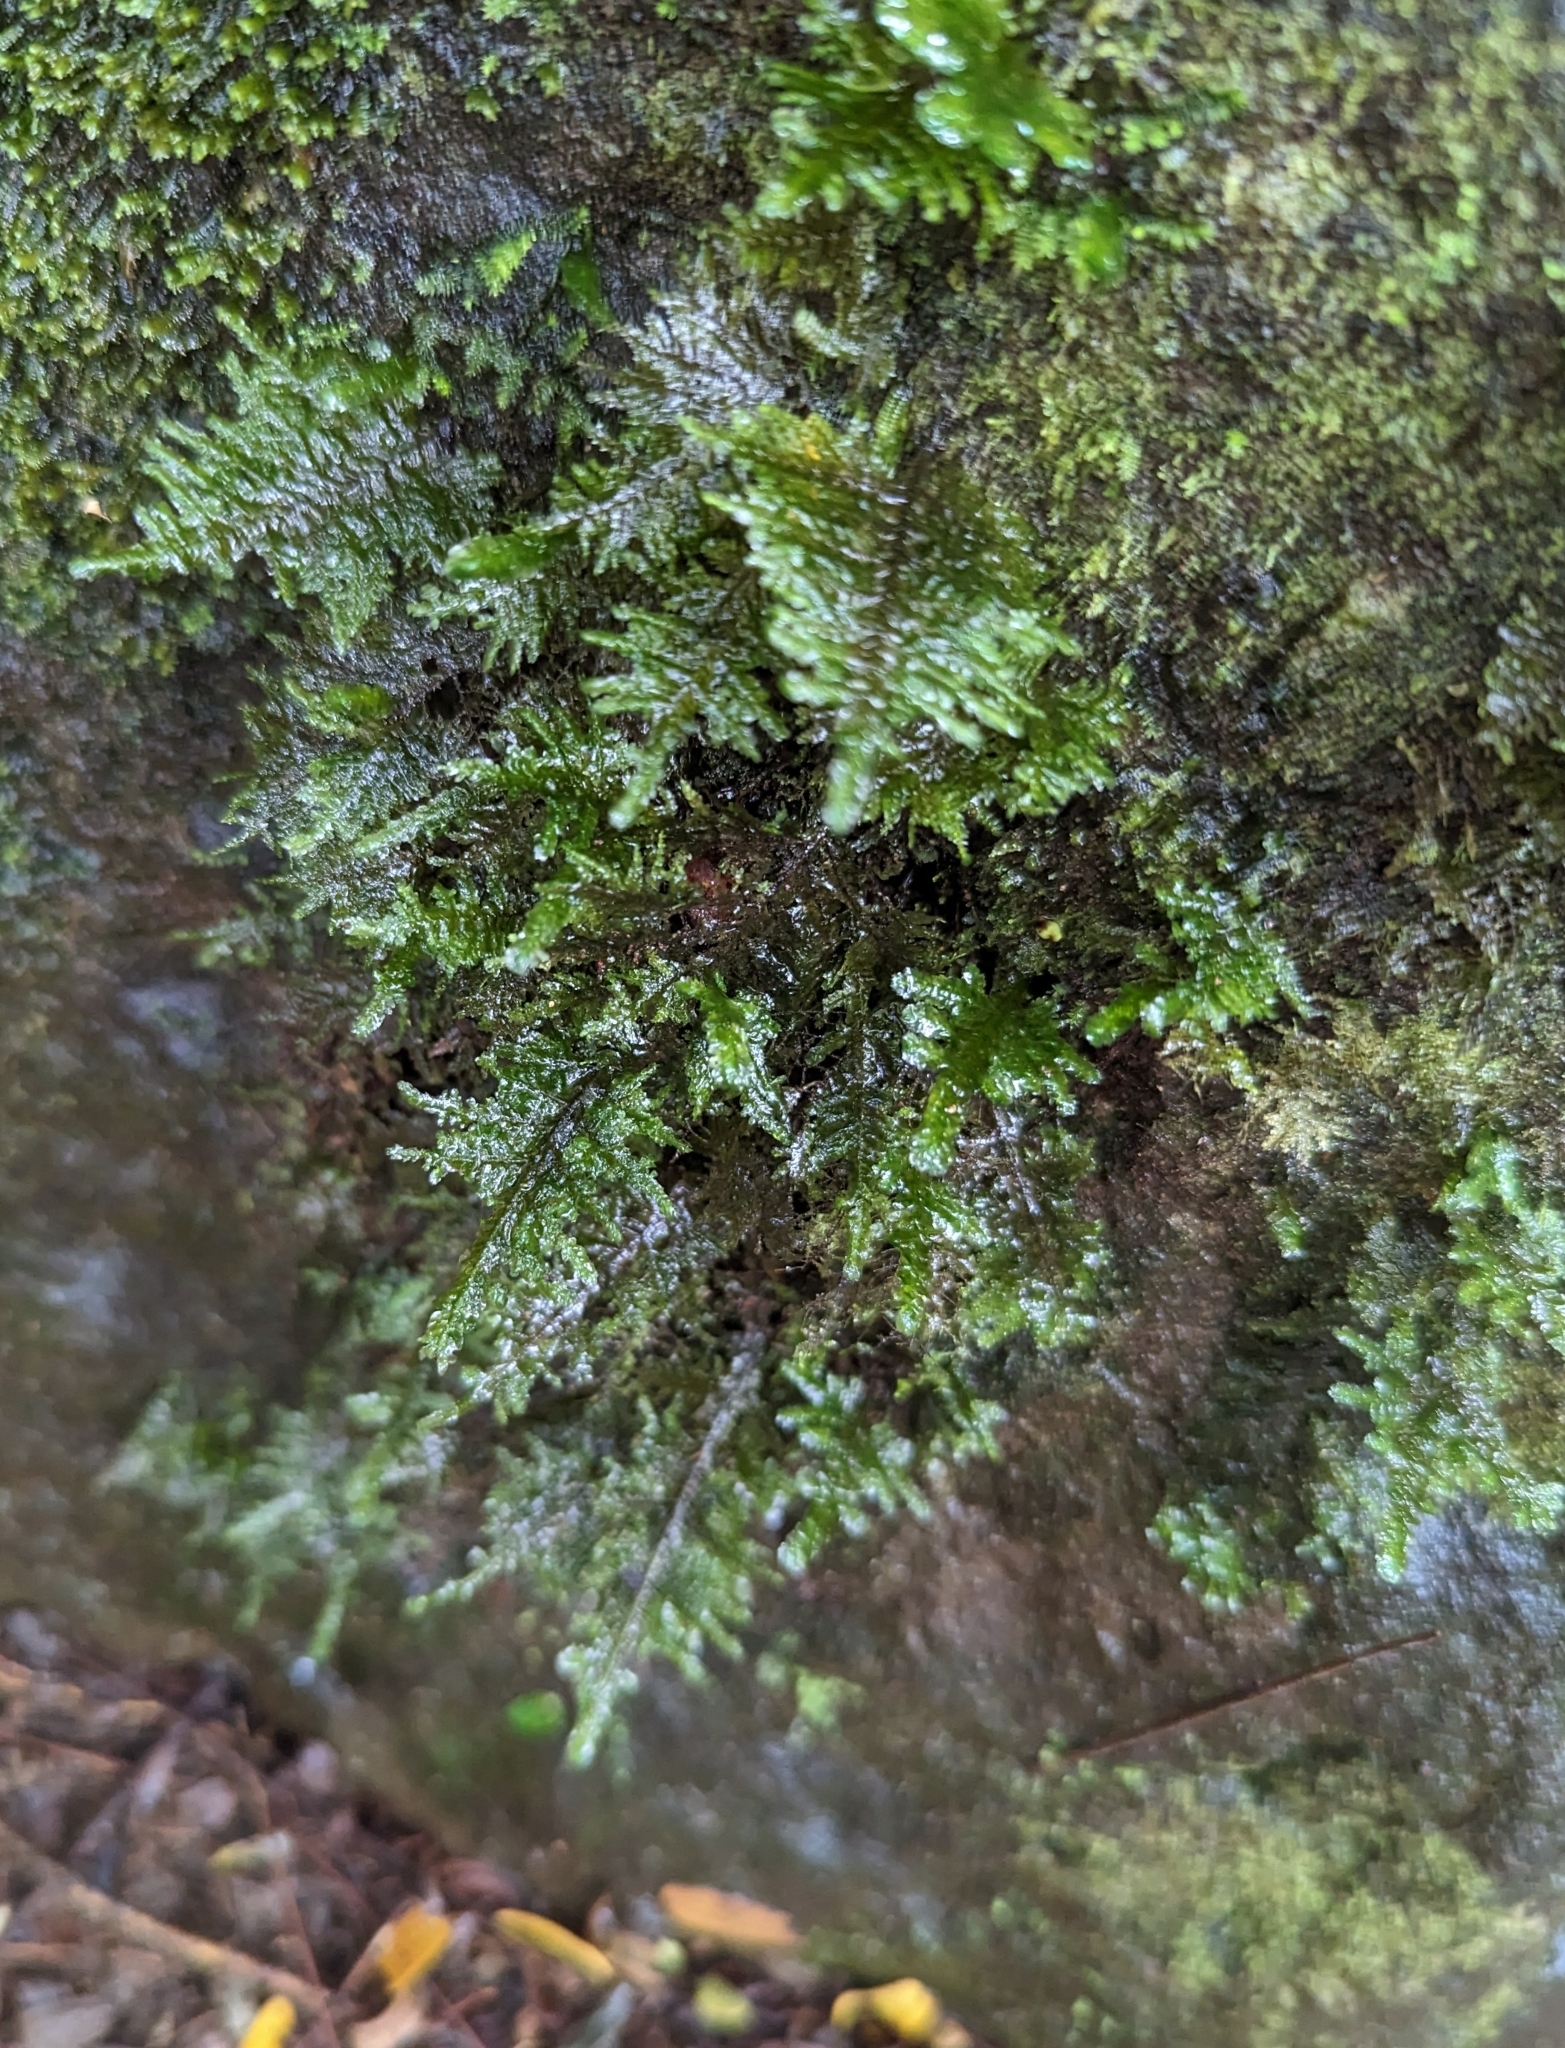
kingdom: Plantae
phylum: Bryophyta
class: Bryopsida
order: Hypnales
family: Neckeraceae
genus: Homaliodendron
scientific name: Homaliodendron flabellatum
